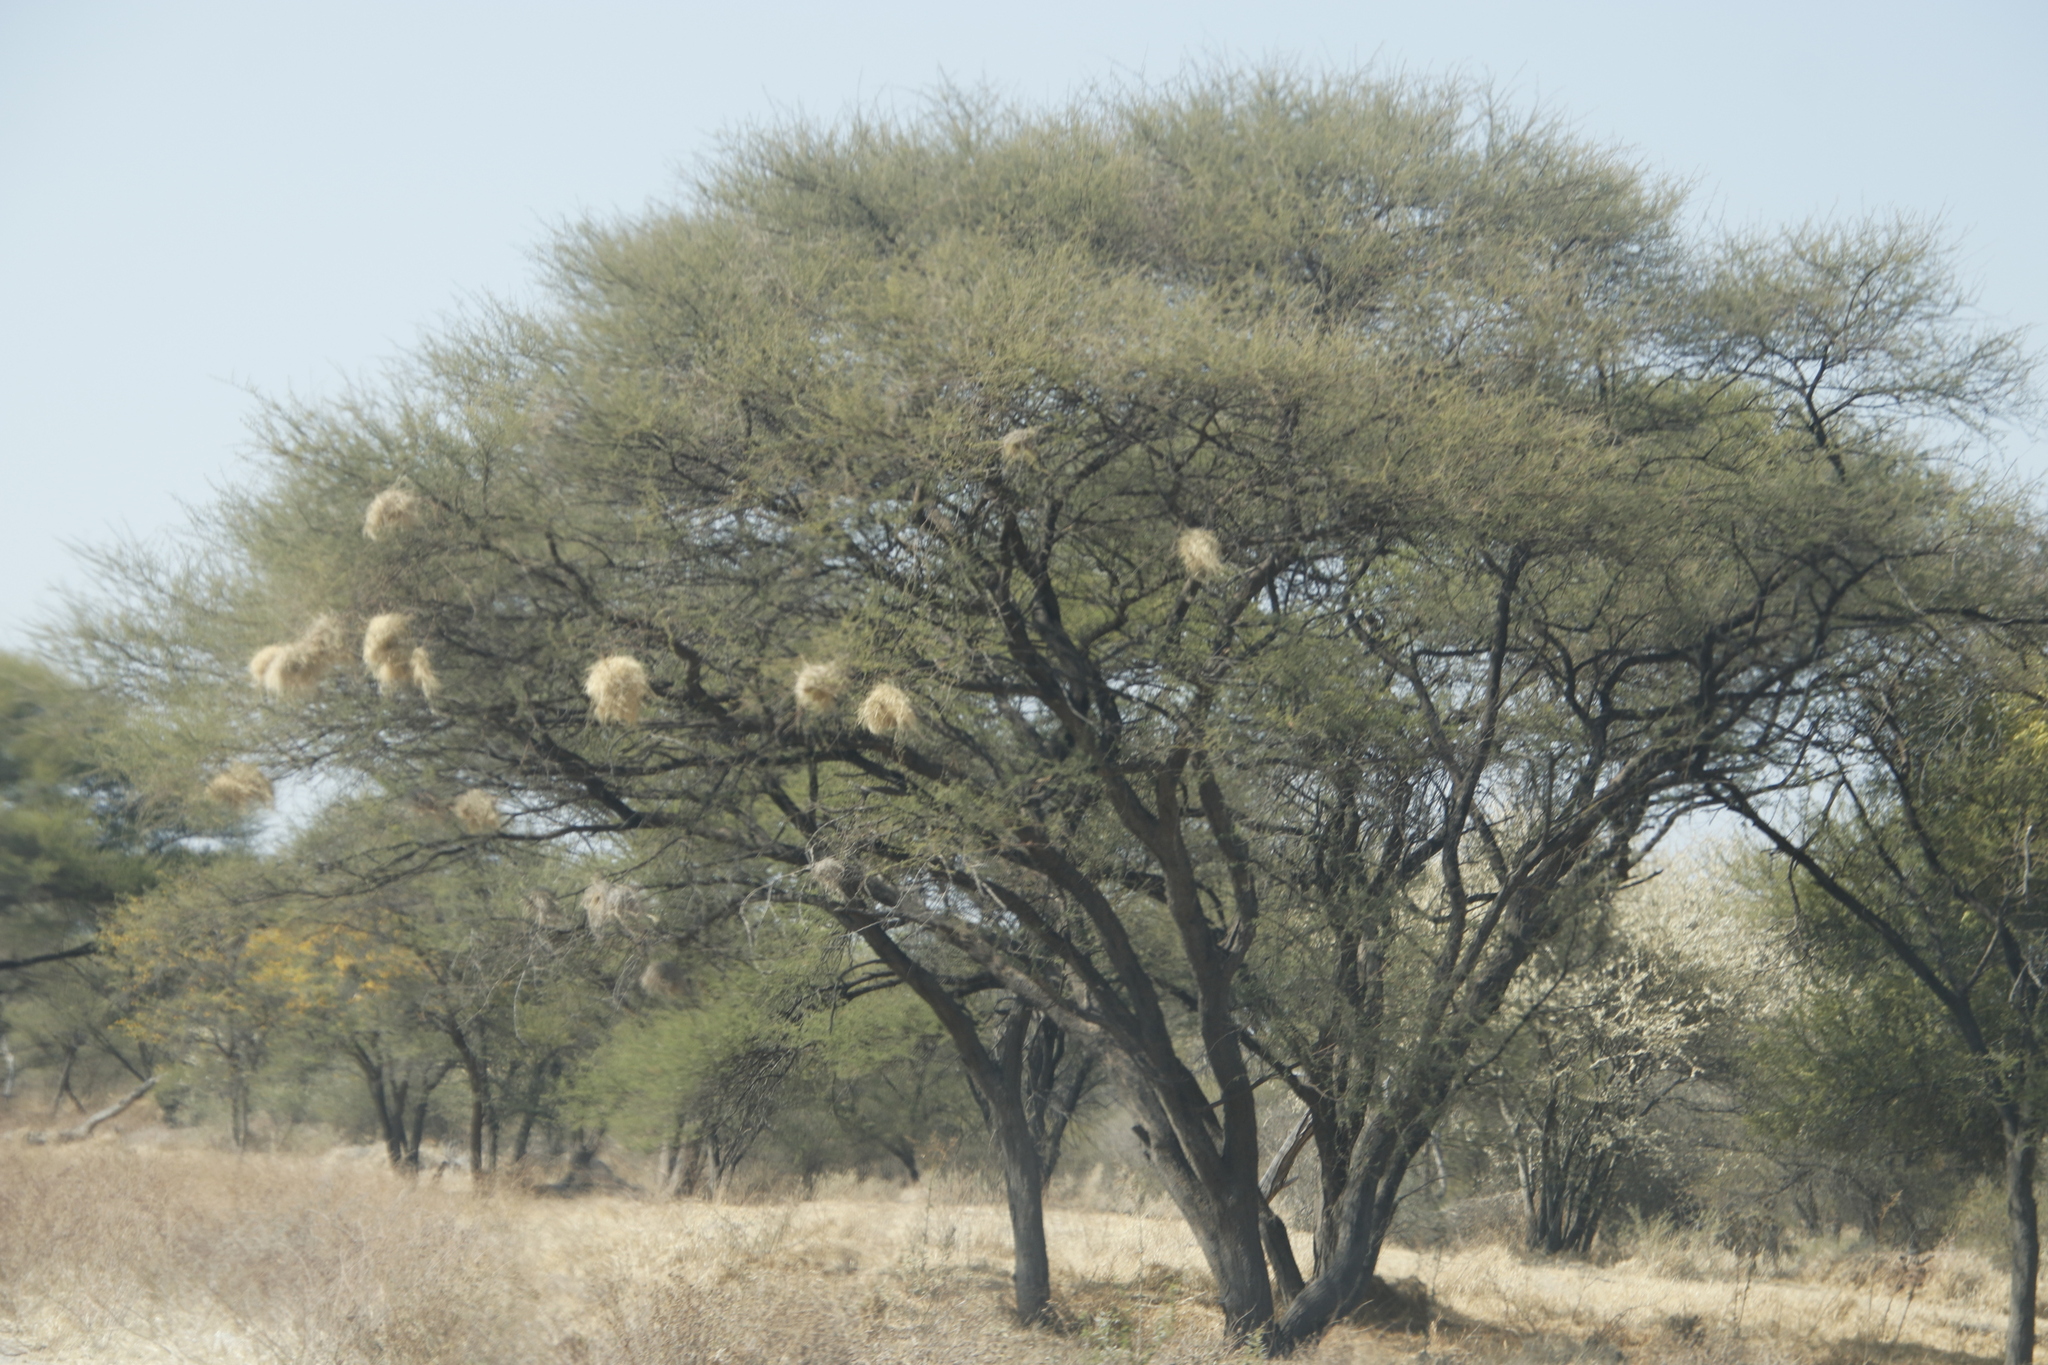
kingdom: Animalia
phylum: Chordata
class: Aves
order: Passeriformes
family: Passeridae
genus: Plocepasser
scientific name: Plocepasser mahali
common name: White-browed sparrow-weaver
